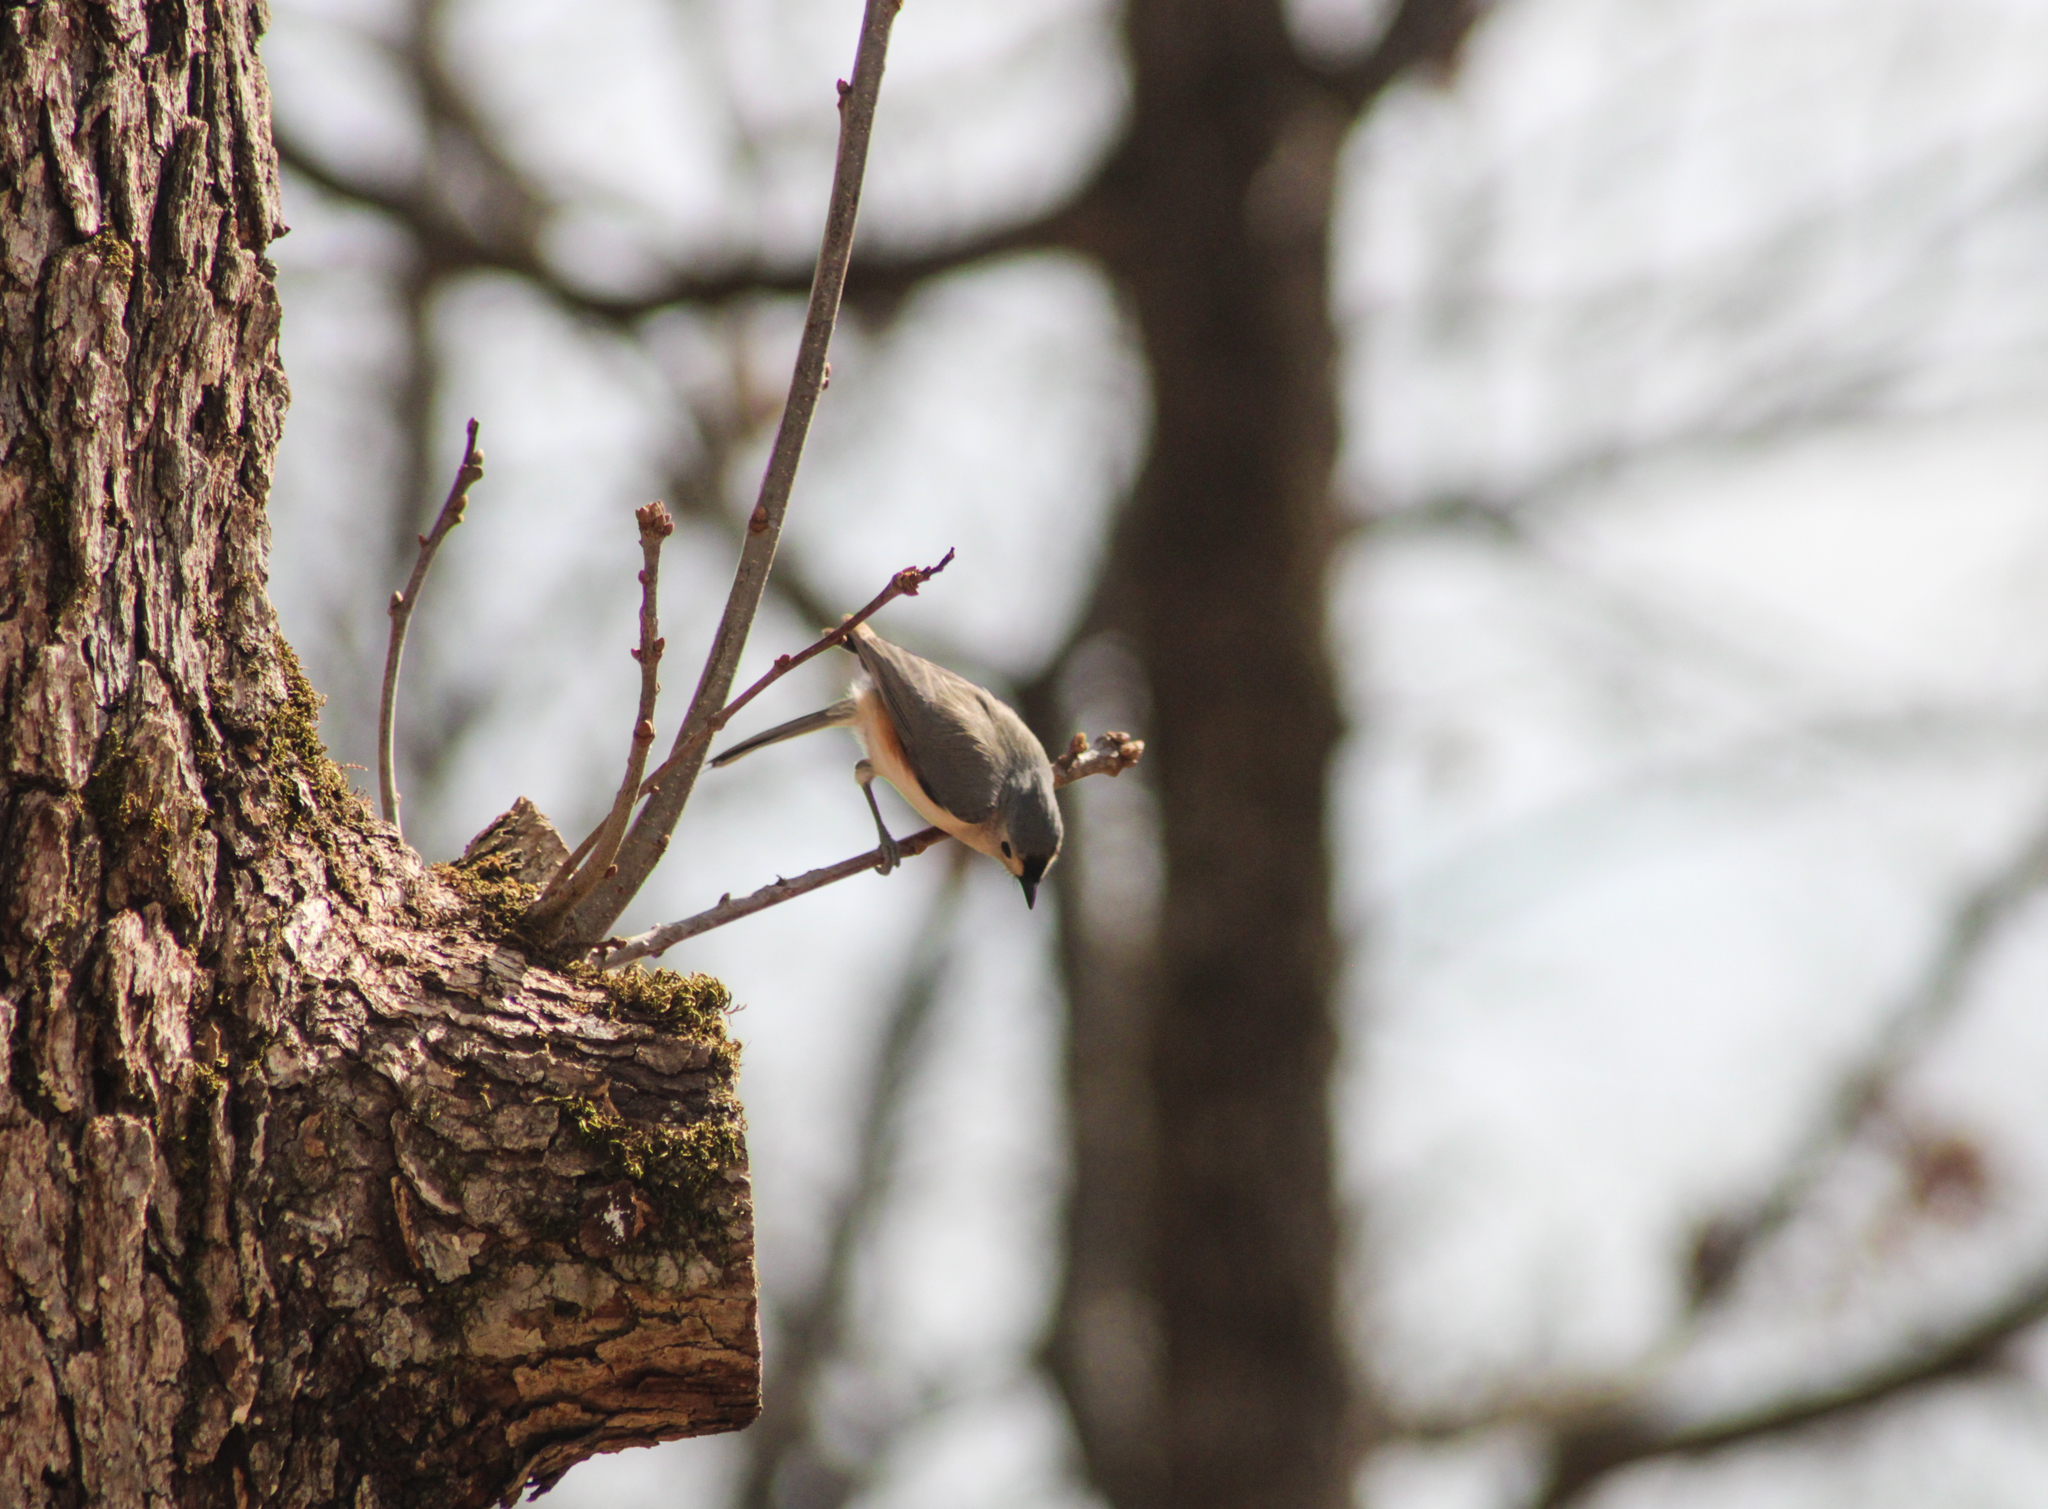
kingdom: Animalia
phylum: Chordata
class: Aves
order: Passeriformes
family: Paridae
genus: Baeolophus
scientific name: Baeolophus bicolor
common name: Tufted titmouse
